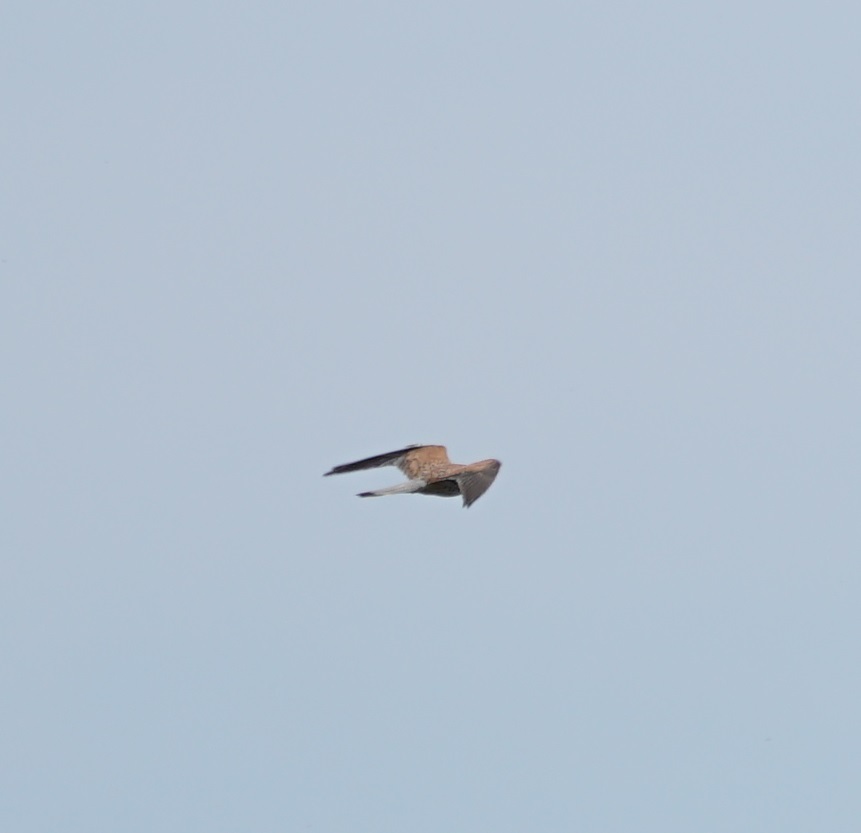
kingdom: Animalia
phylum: Chordata
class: Aves
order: Falconiformes
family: Falconidae
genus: Falco
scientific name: Falco tinnunculus
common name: Common kestrel
